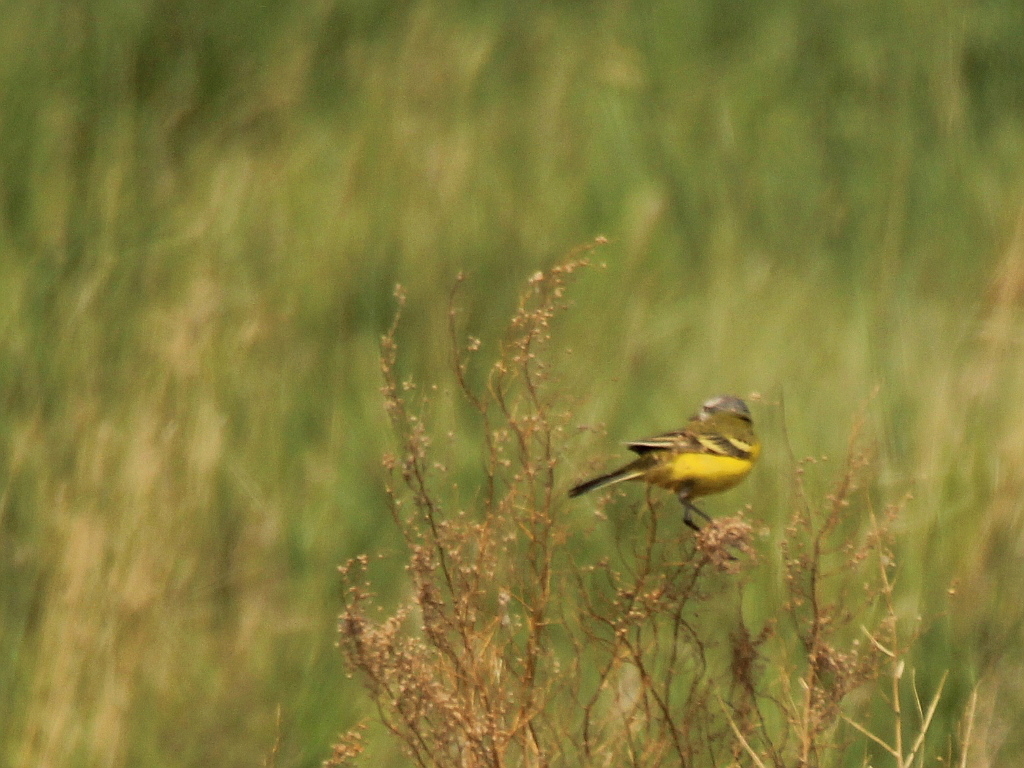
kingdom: Animalia
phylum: Chordata
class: Aves
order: Passeriformes
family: Motacillidae
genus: Motacilla
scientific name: Motacilla flava
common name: Western yellow wagtail
